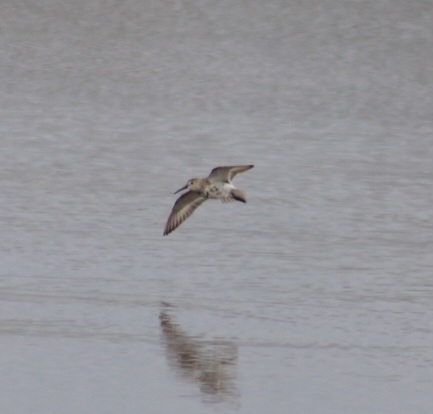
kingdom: Animalia
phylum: Chordata
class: Aves
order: Charadriiformes
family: Scolopacidae
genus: Calidris
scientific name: Calidris alpina
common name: Dunlin
